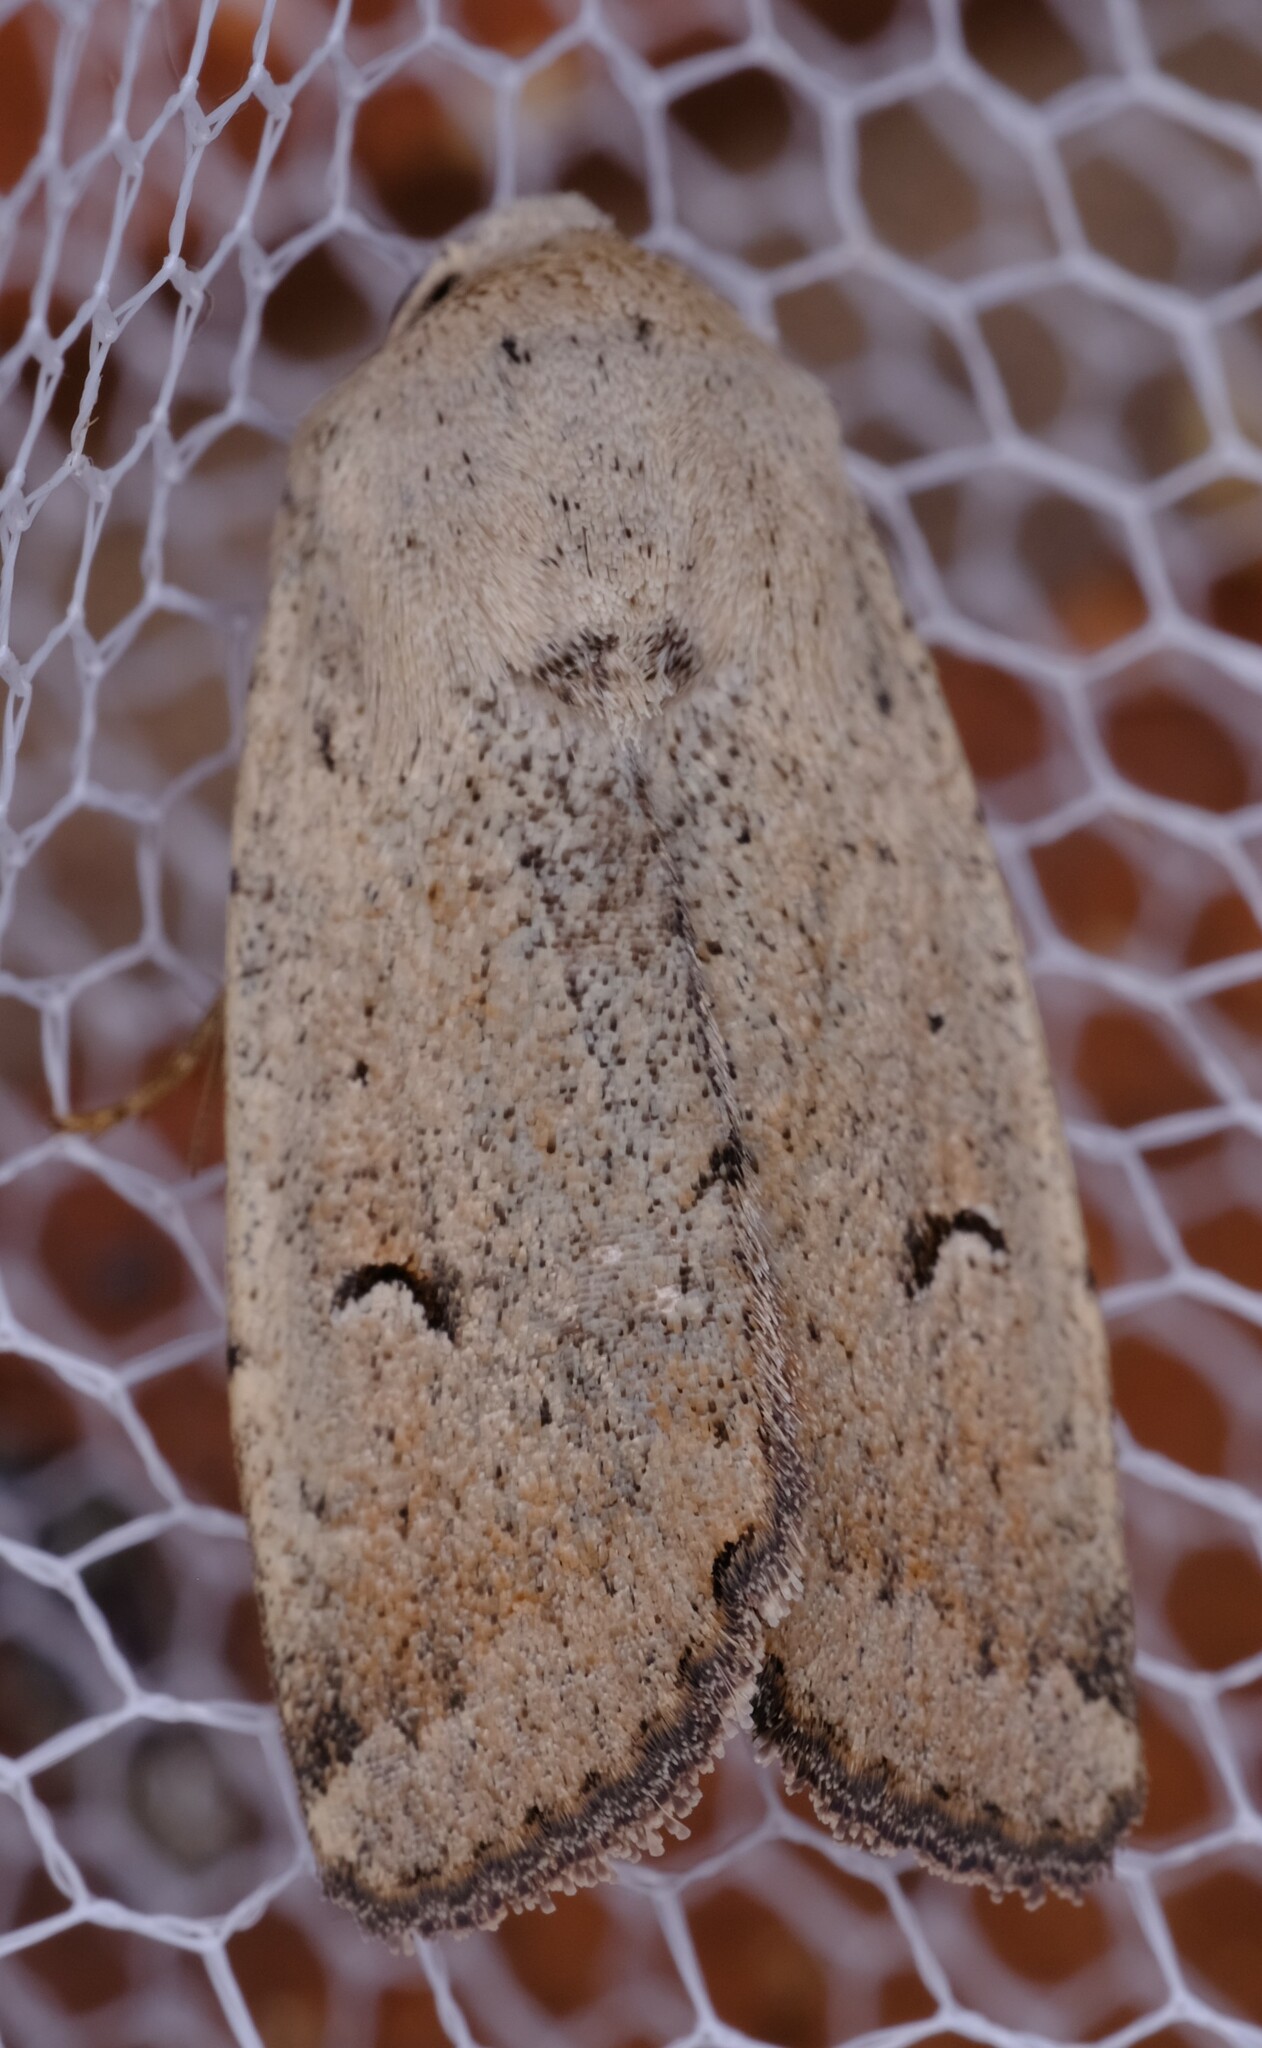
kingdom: Animalia
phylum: Arthropoda
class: Insecta
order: Lepidoptera
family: Noctuidae
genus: Proteuxoa
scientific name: Proteuxoa paratorna
